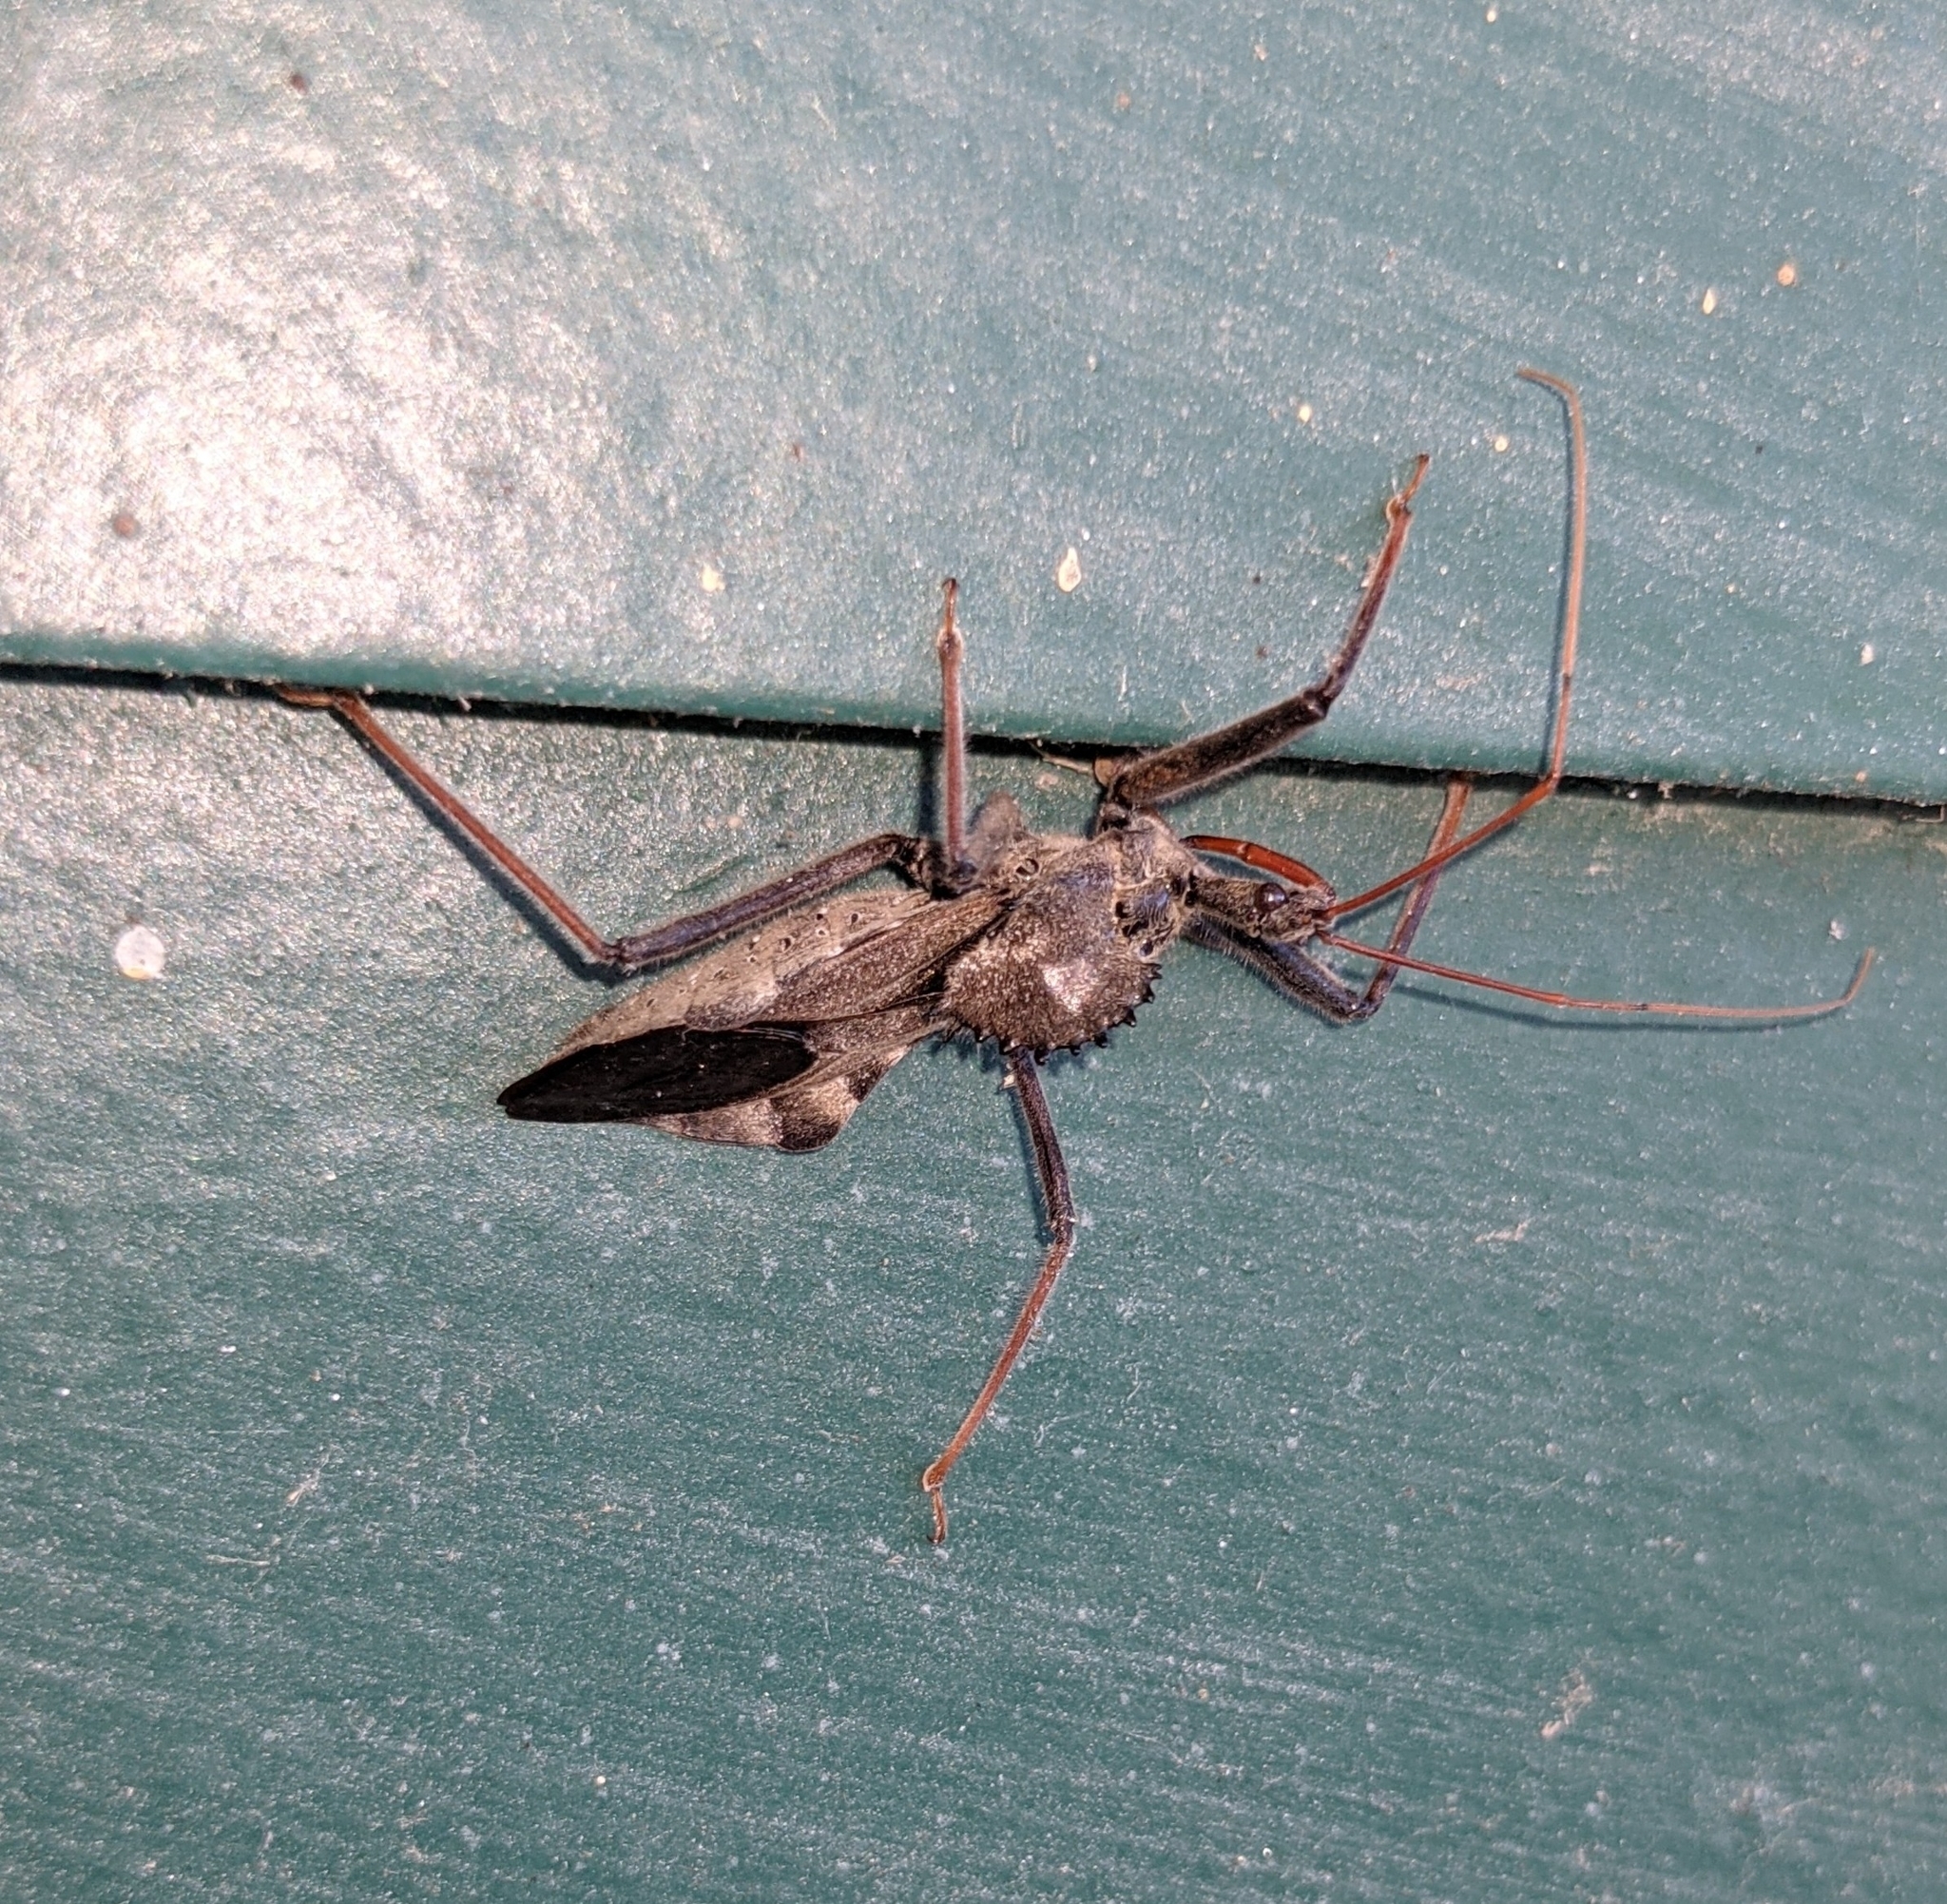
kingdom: Animalia
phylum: Arthropoda
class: Insecta
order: Hemiptera
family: Reduviidae
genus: Arilus
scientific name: Arilus cristatus
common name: North american wheel bug
